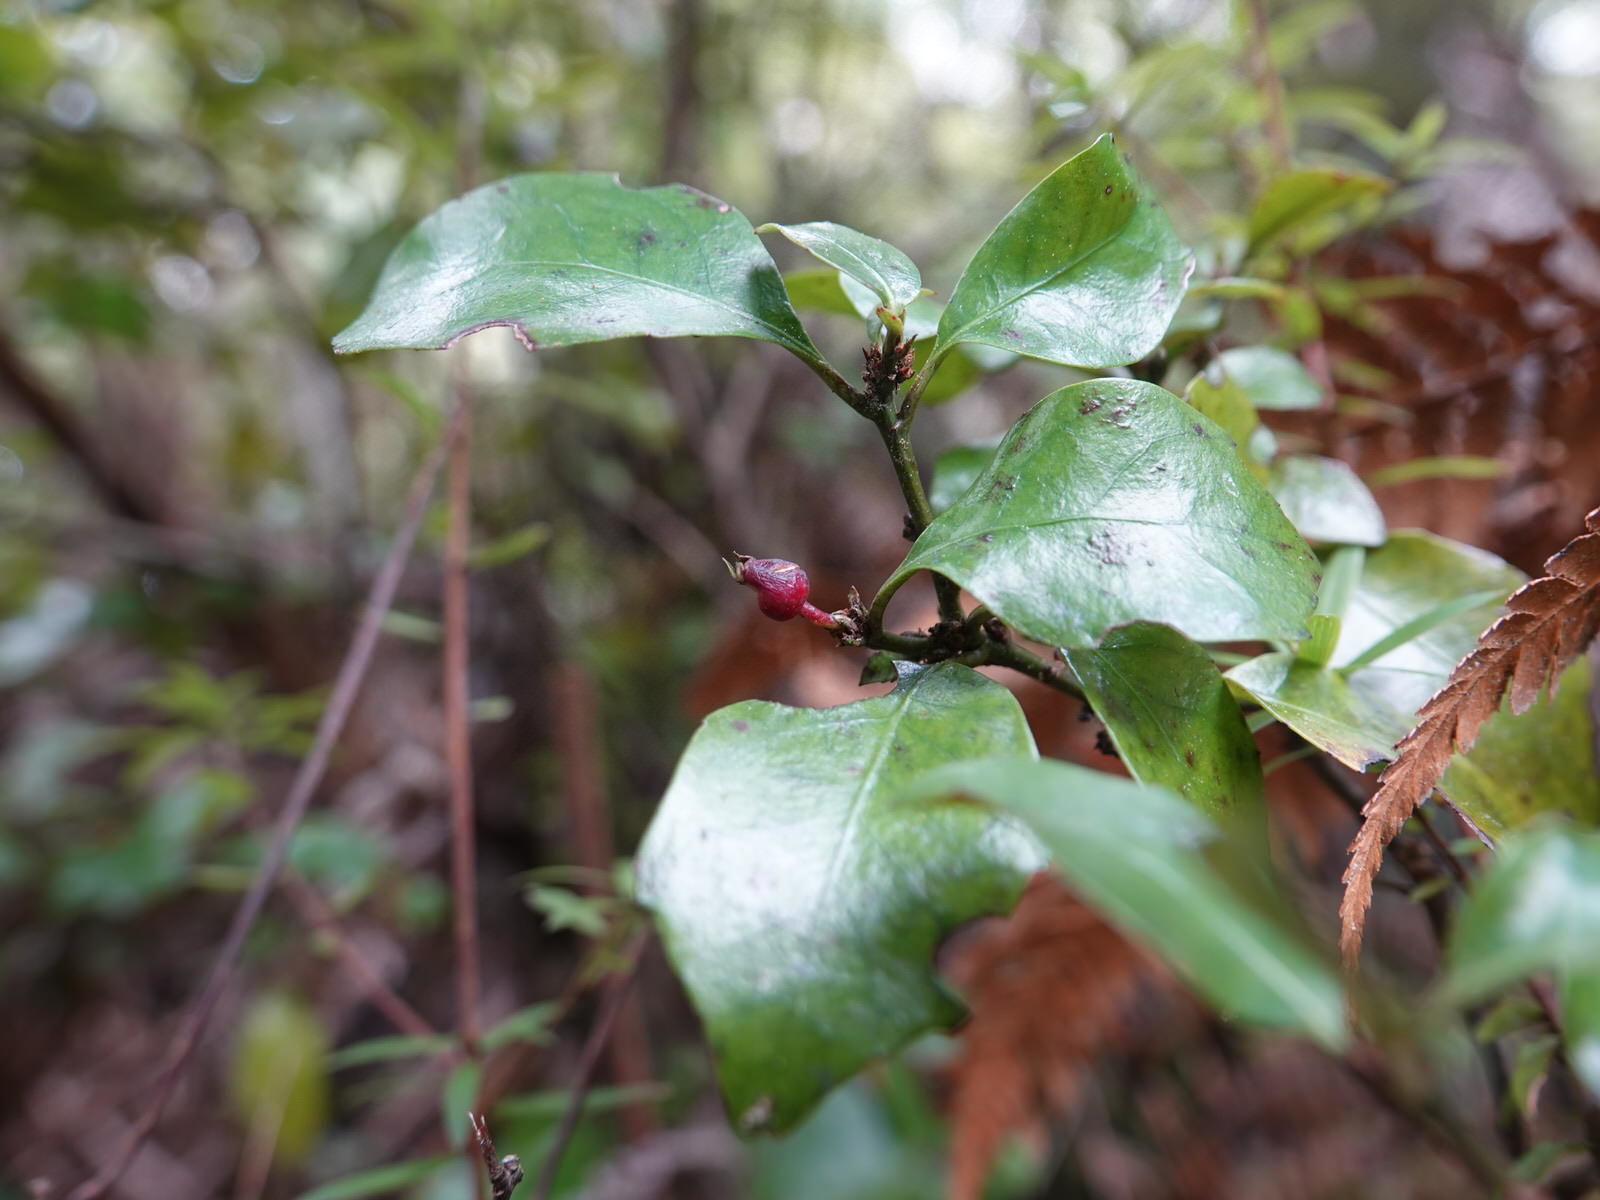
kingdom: Plantae
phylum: Tracheophyta
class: Magnoliopsida
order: Asterales
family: Alseuosmiaceae
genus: Alseuosmia
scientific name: Alseuosmia macrophylla
